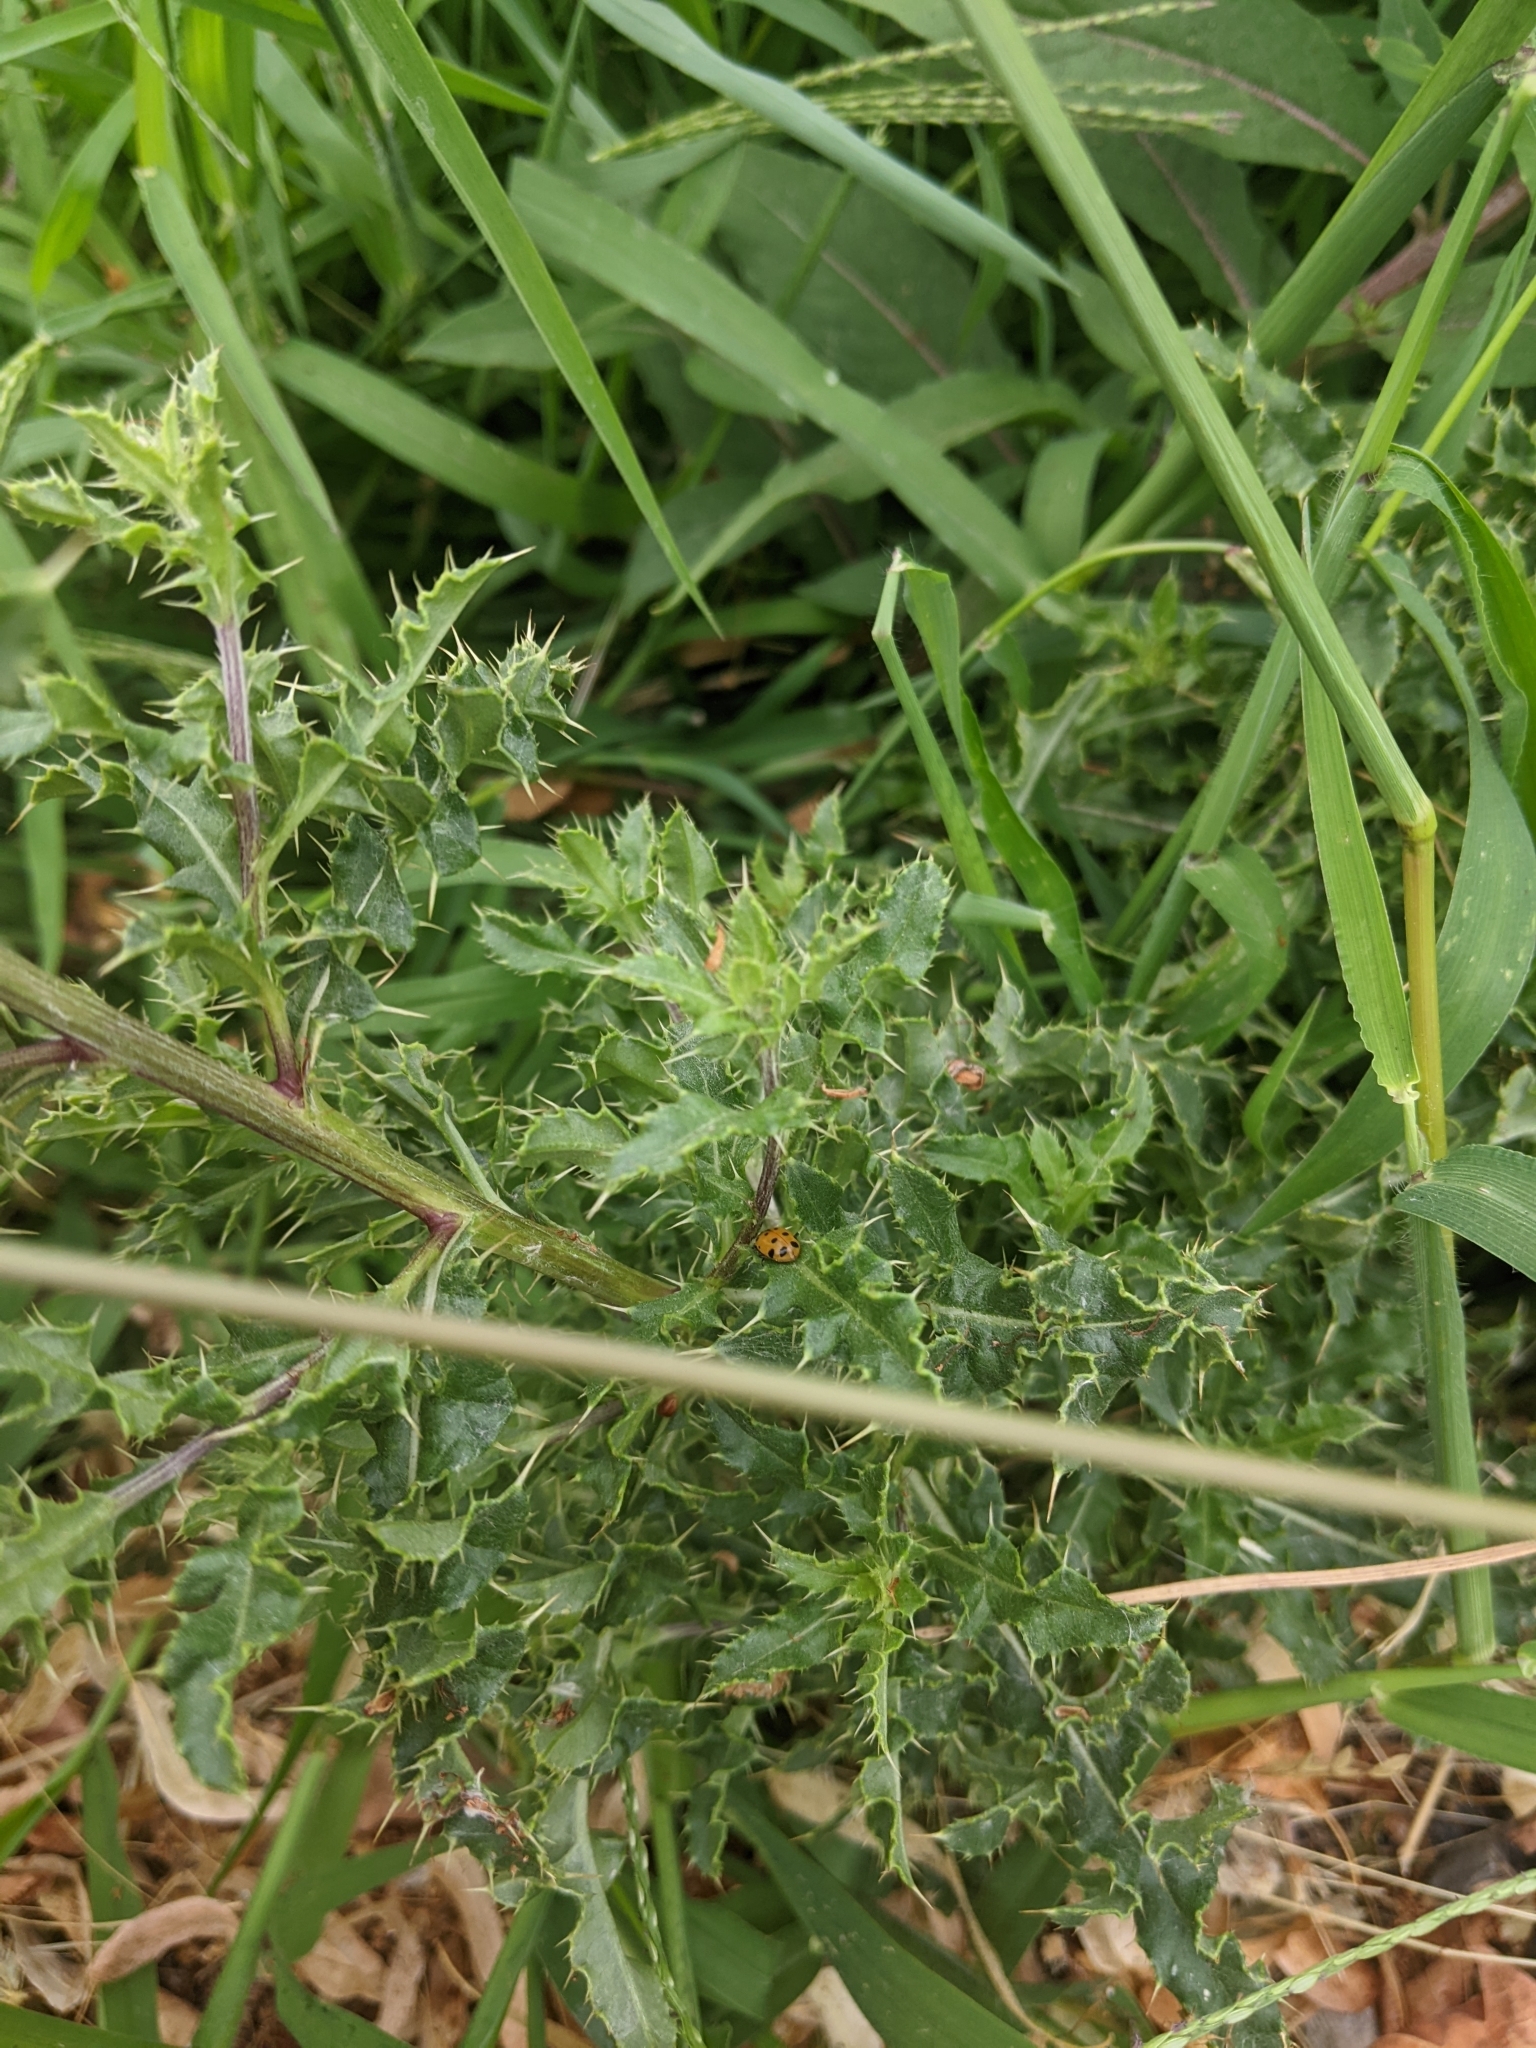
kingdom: Plantae
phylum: Tracheophyta
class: Magnoliopsida
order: Asterales
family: Asteraceae
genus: Cirsium
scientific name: Cirsium arvense
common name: Creeping thistle
